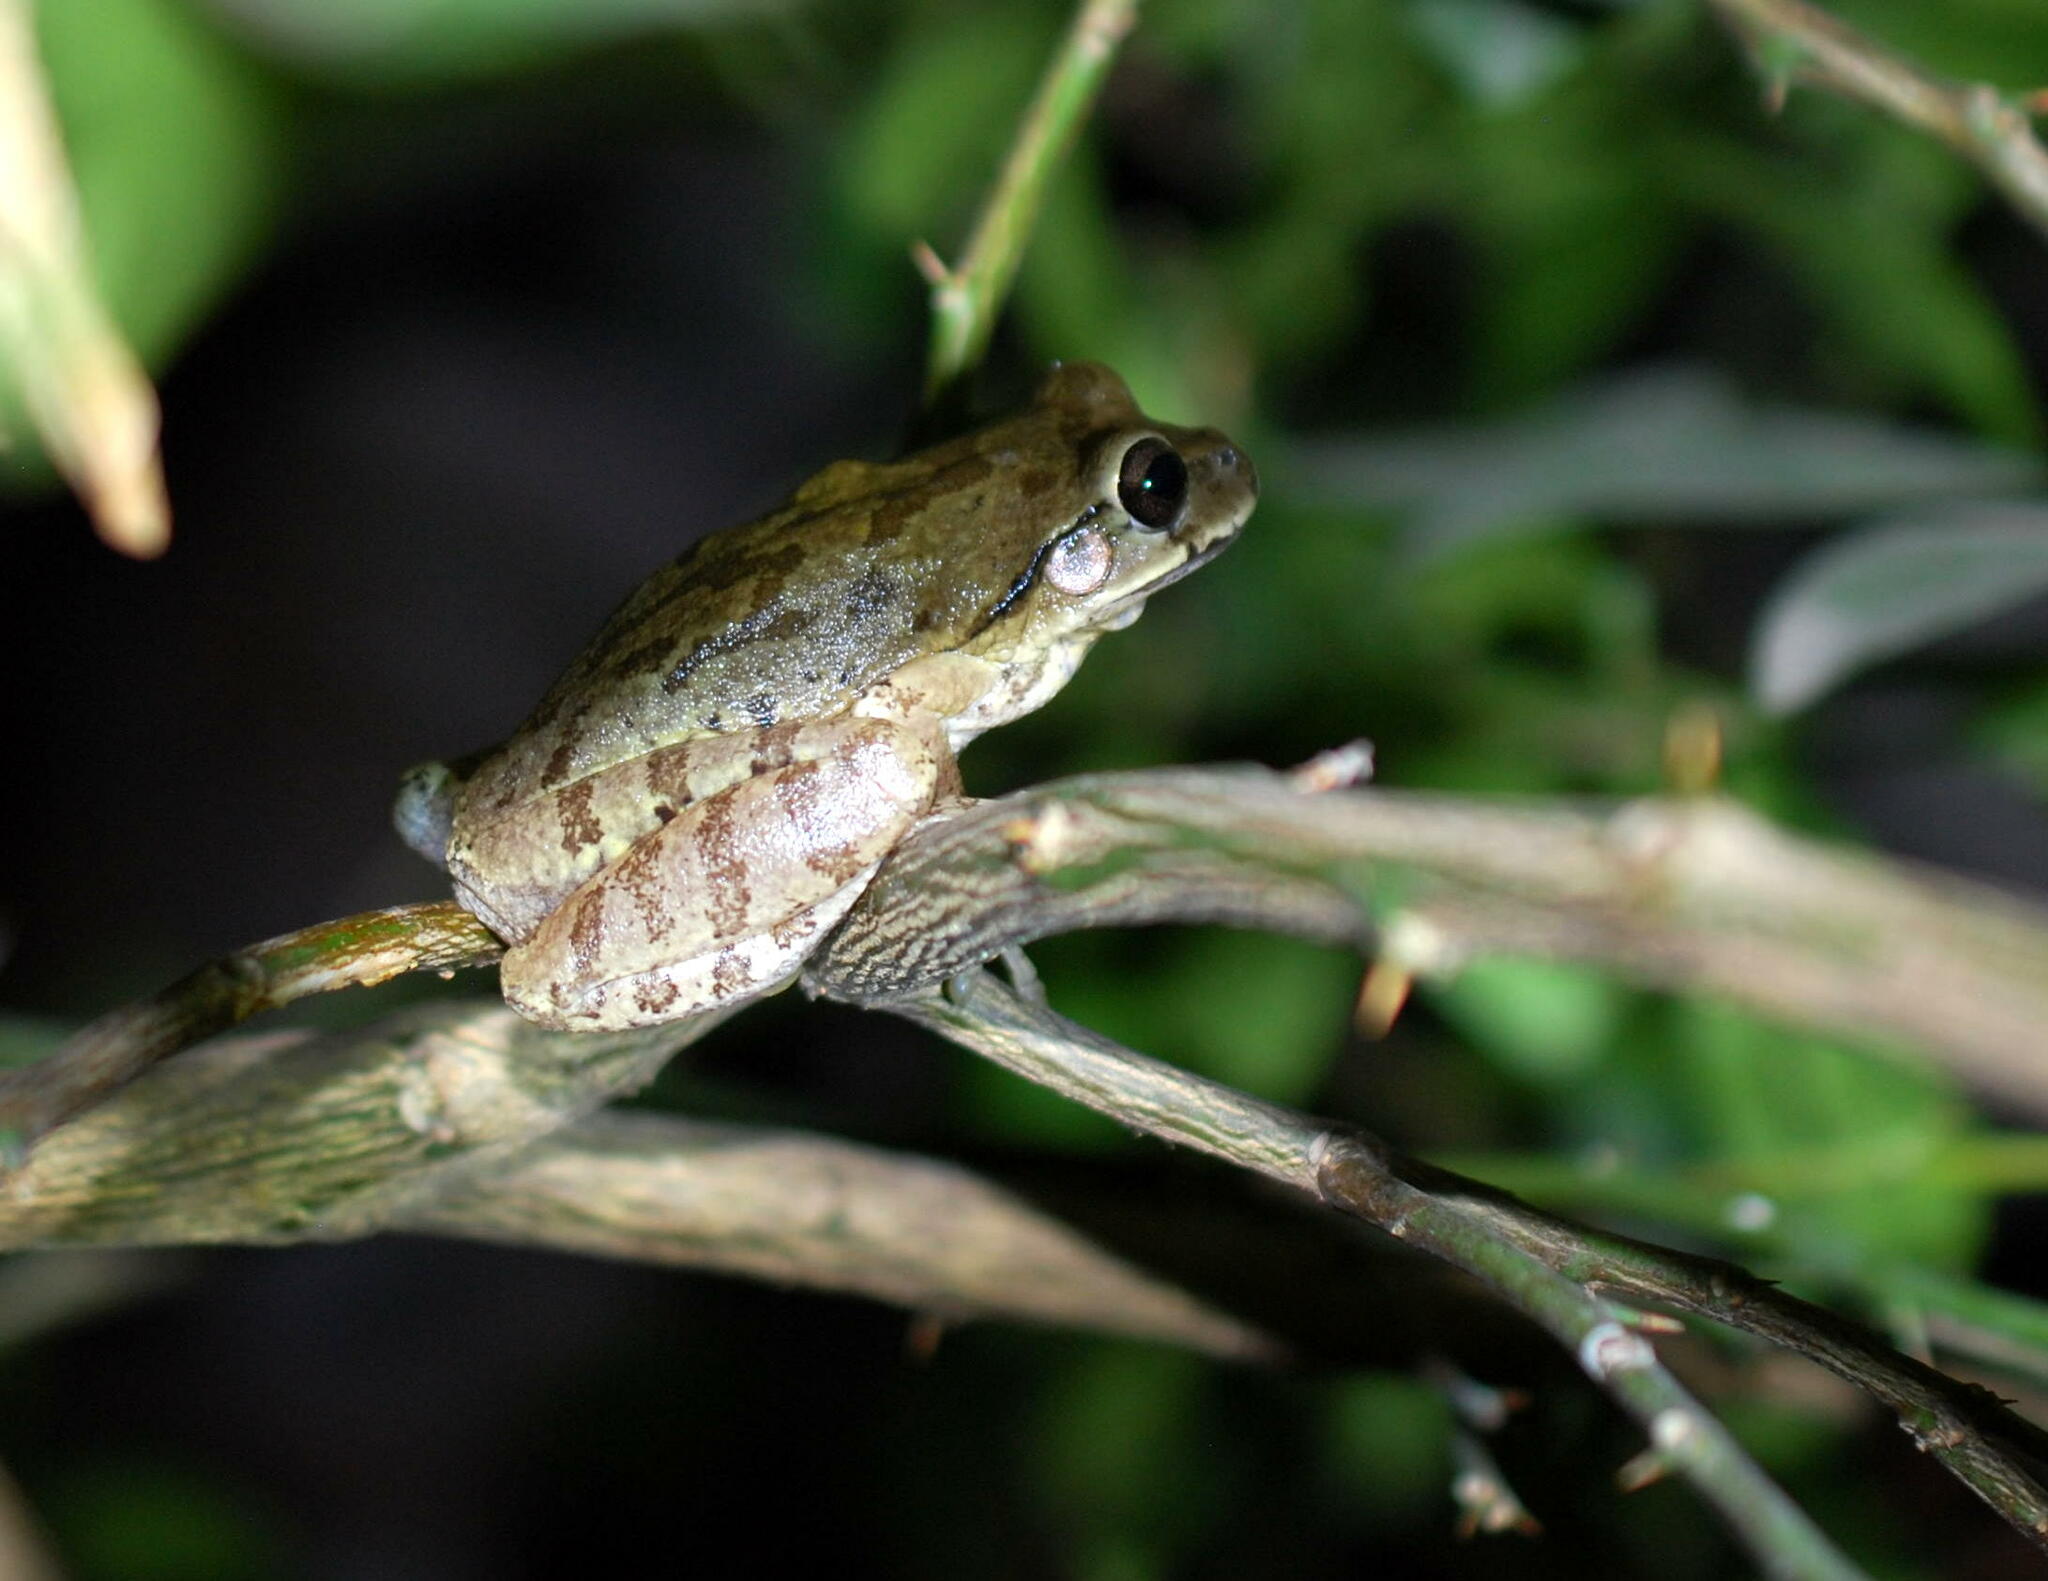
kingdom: Animalia
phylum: Chordata
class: Amphibia
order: Anura
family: Hylidae
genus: Smilisca
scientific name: Smilisca baudinii
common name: Mexican smilisca
